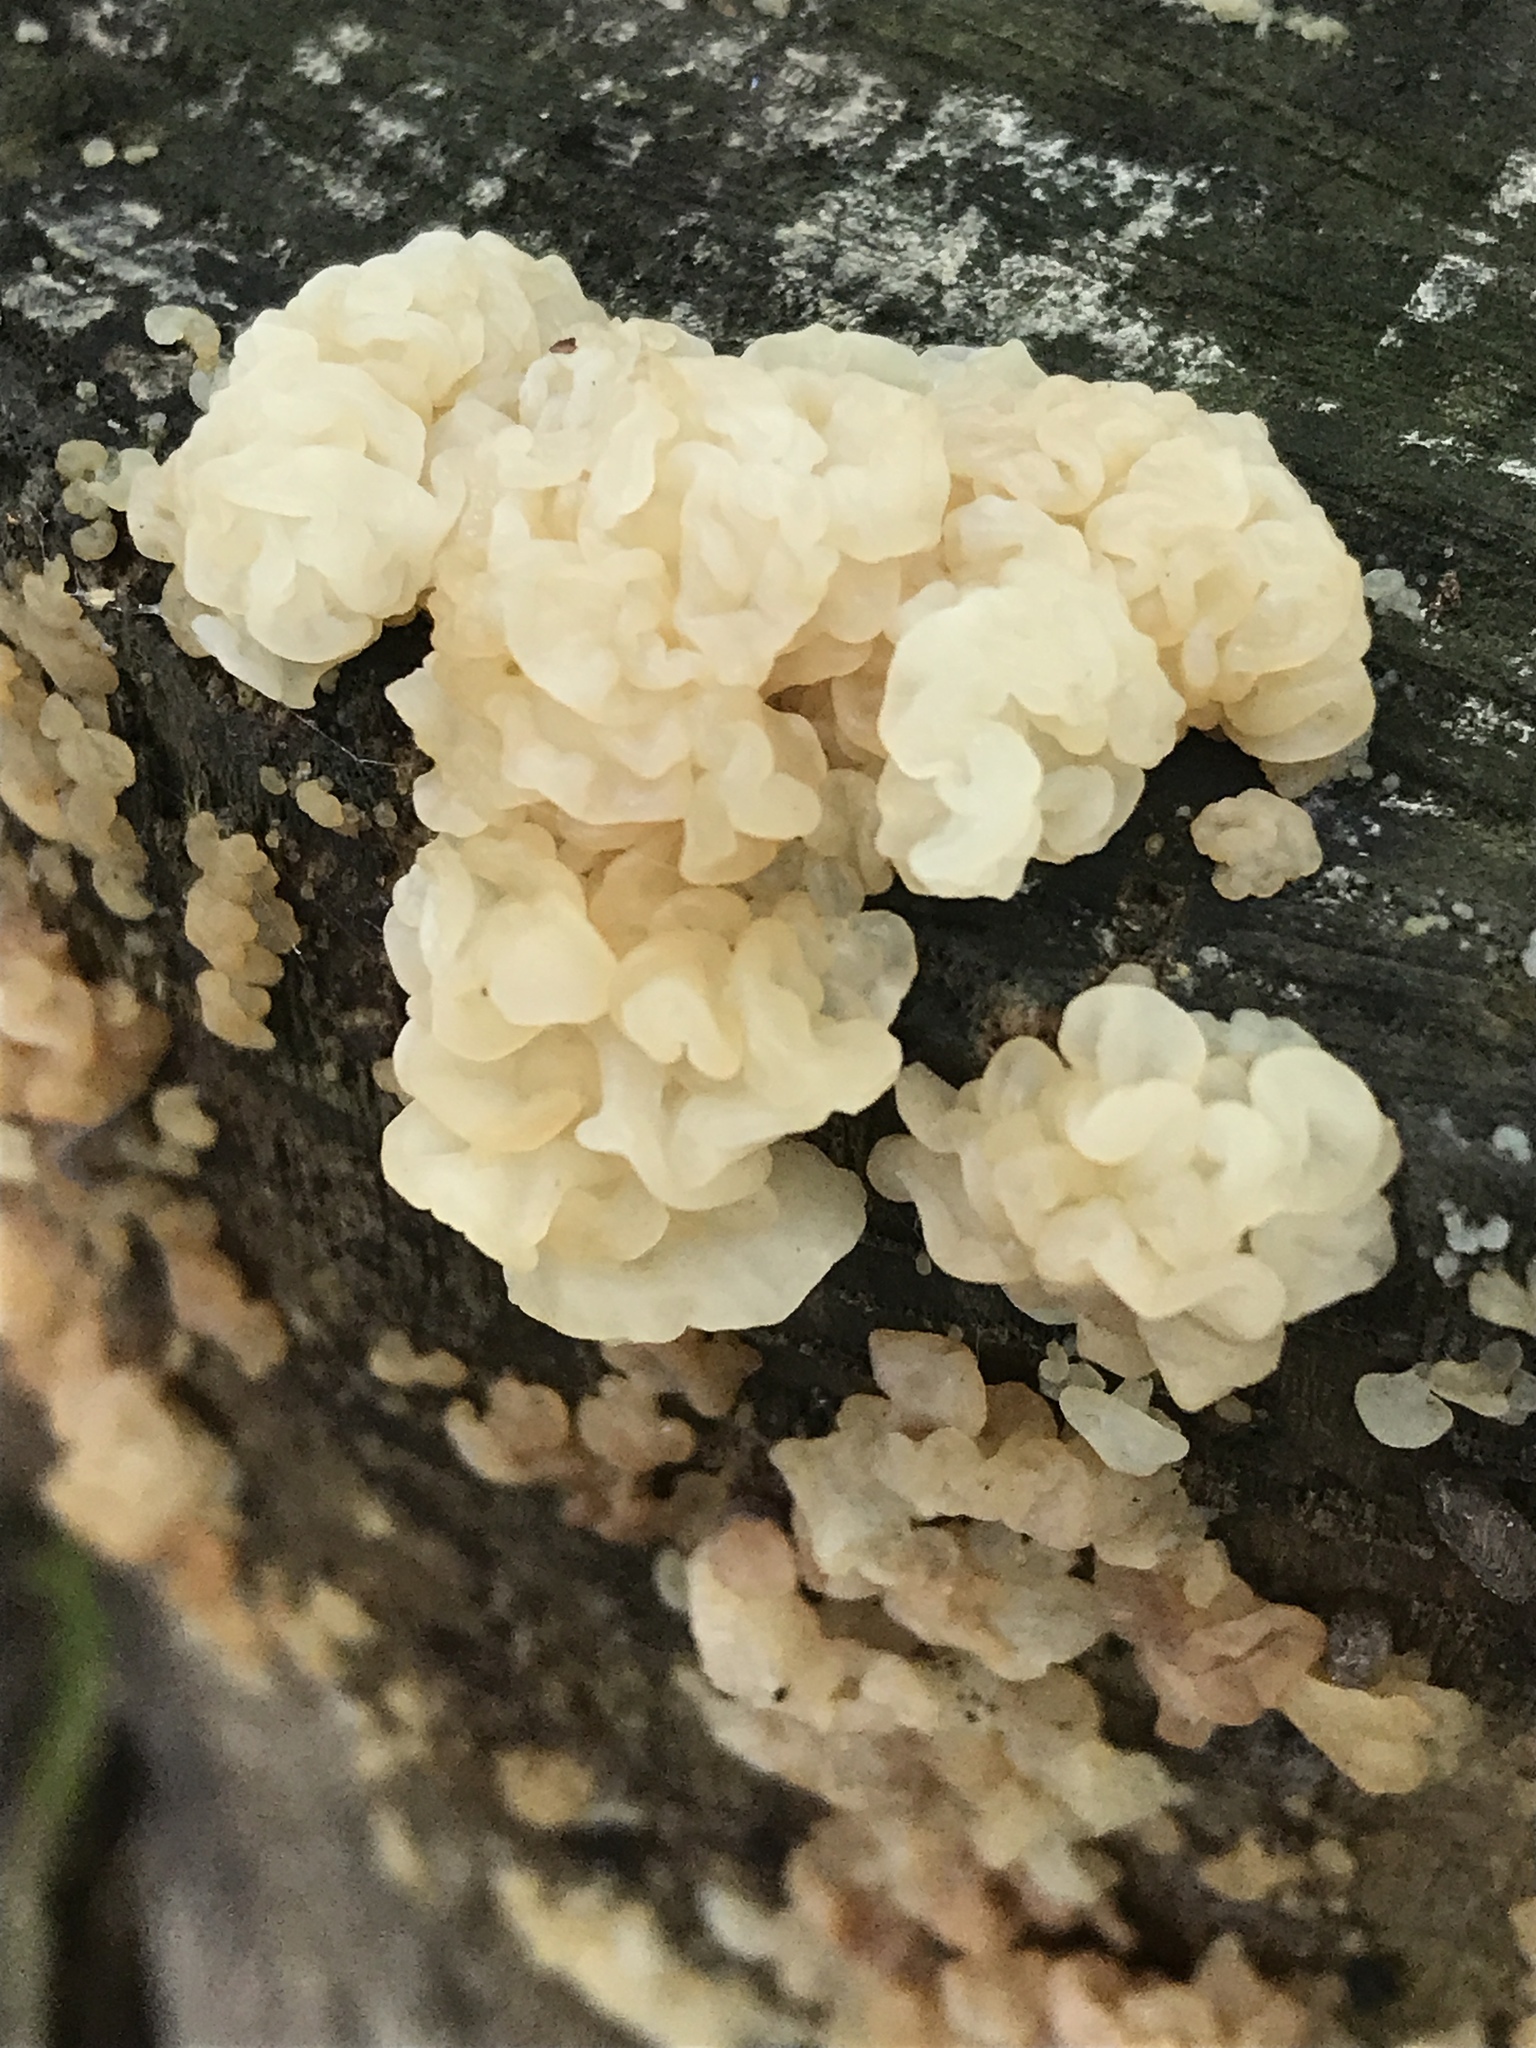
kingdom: Fungi
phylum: Basidiomycota
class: Agaricomycetes
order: Auriculariales
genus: Ductifera
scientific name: Ductifera pululahuana
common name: White jelly fungus
